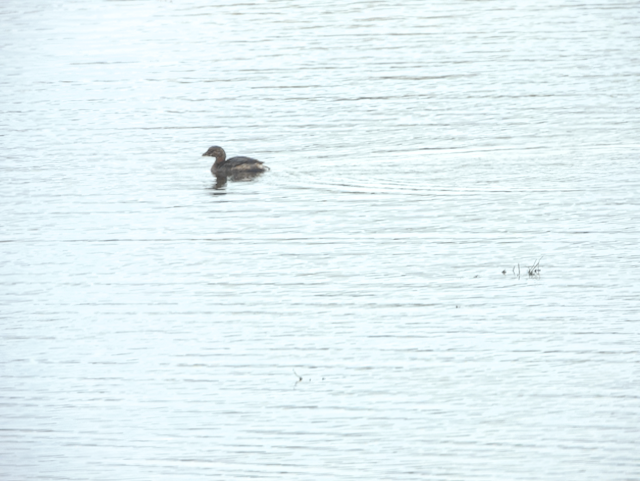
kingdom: Animalia
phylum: Chordata
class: Aves
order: Podicipediformes
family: Podicipedidae
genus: Podilymbus
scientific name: Podilymbus podiceps
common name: Pied-billed grebe
